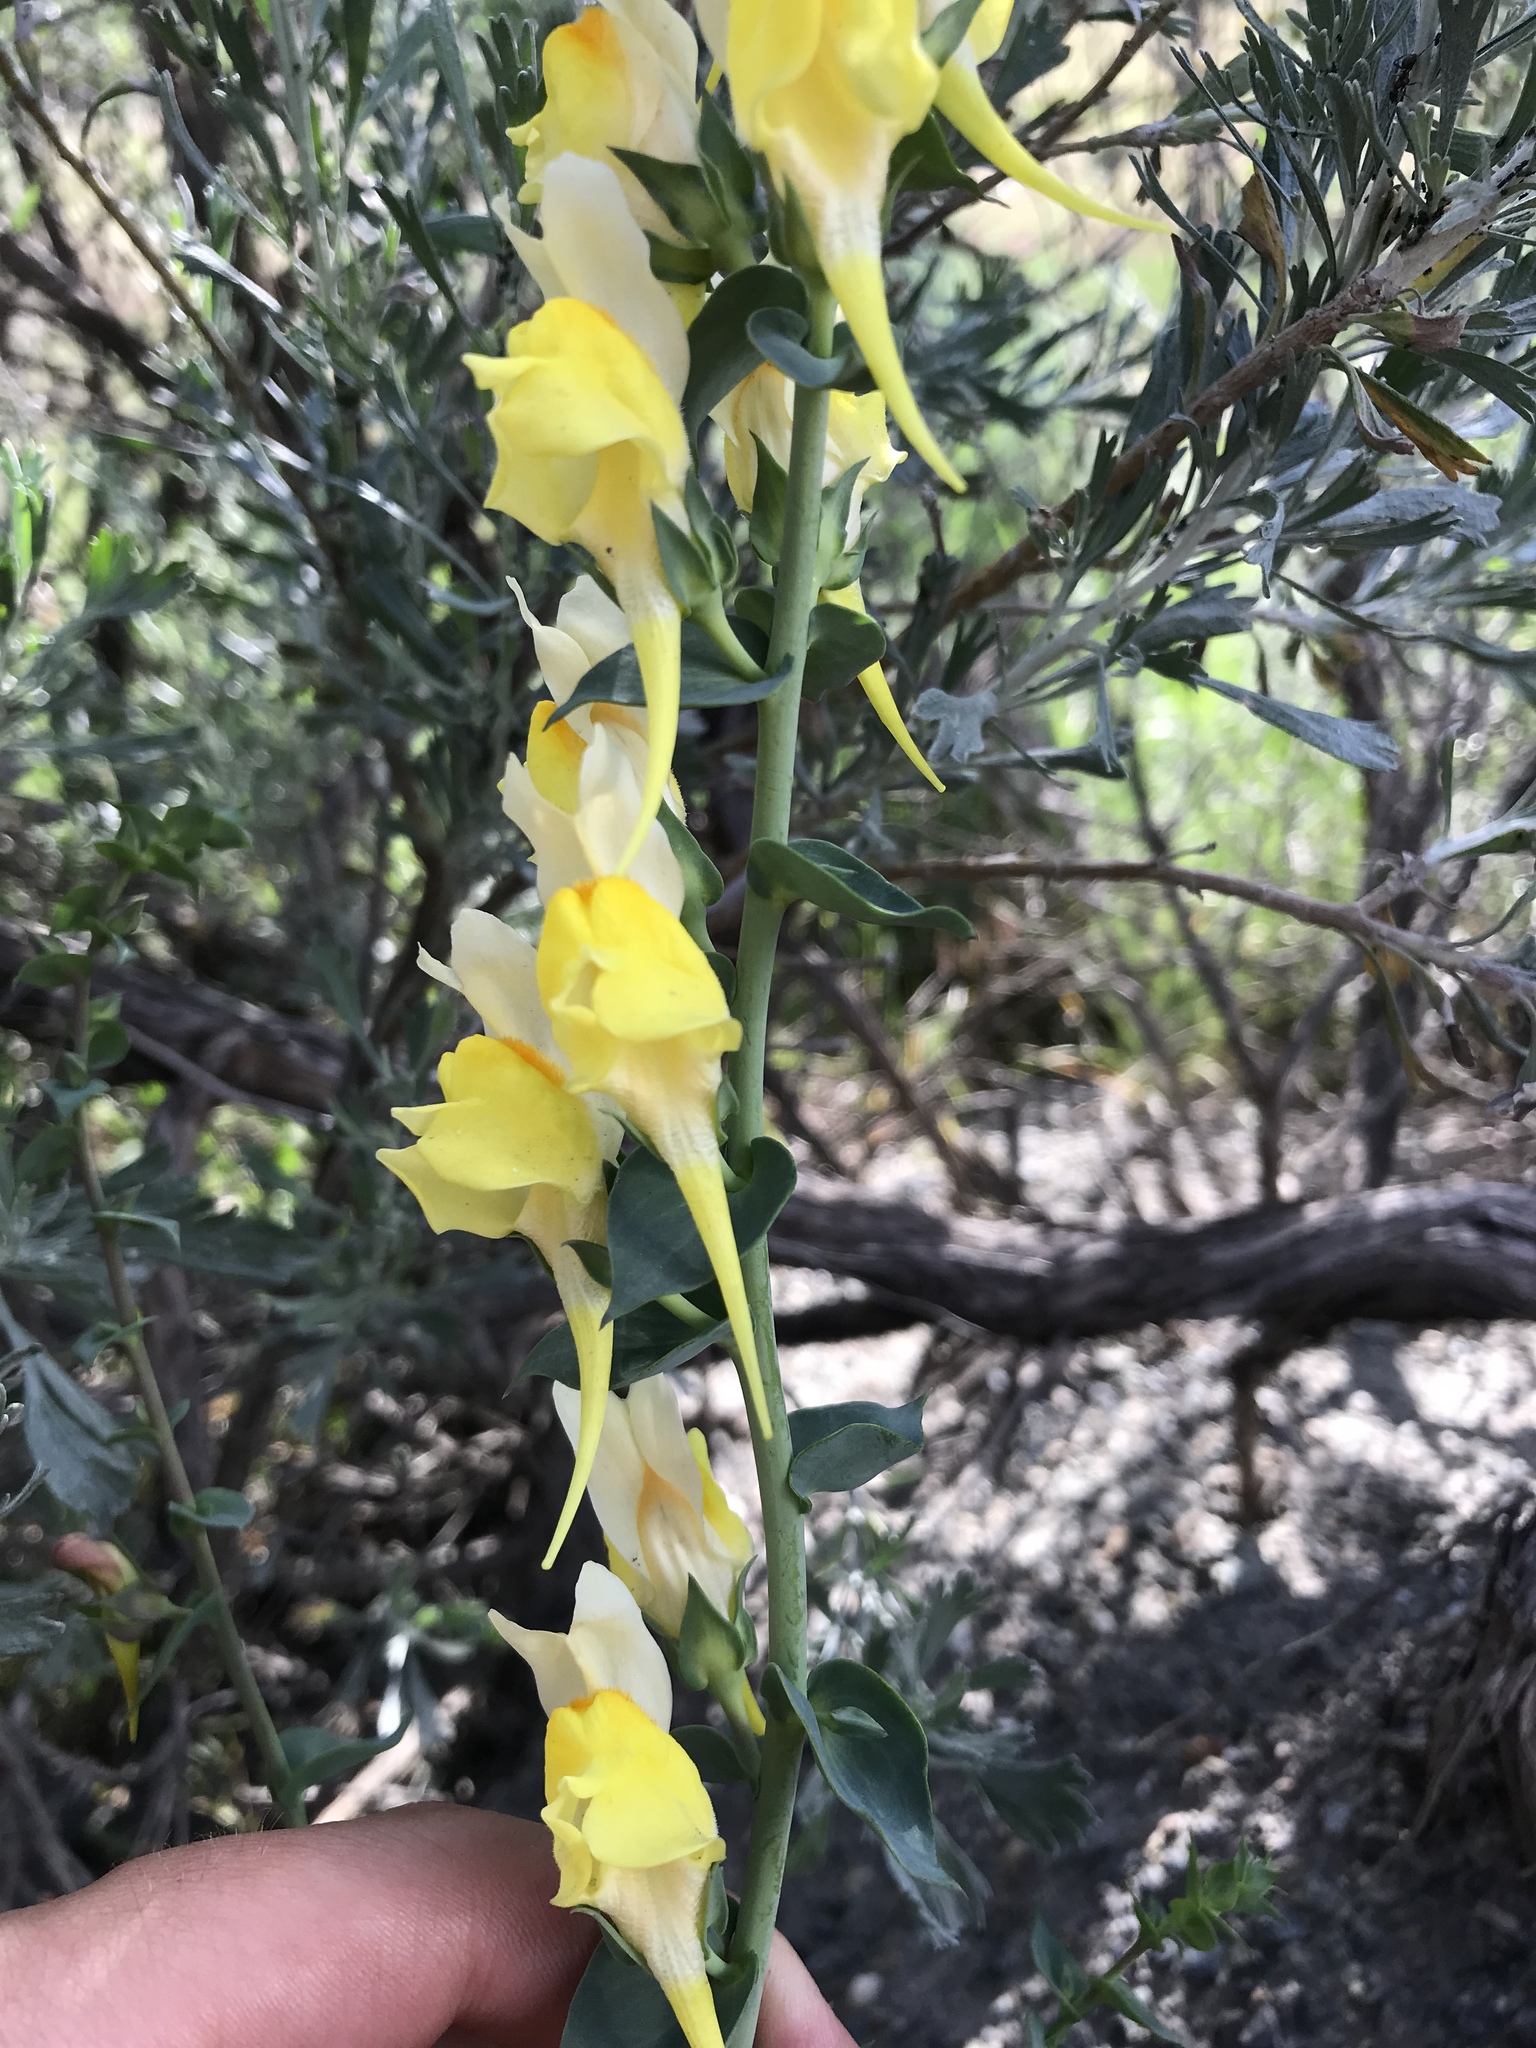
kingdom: Plantae
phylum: Tracheophyta
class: Magnoliopsida
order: Lamiales
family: Plantaginaceae
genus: Linaria
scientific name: Linaria dalmatica
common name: Dalmatian toadflax
